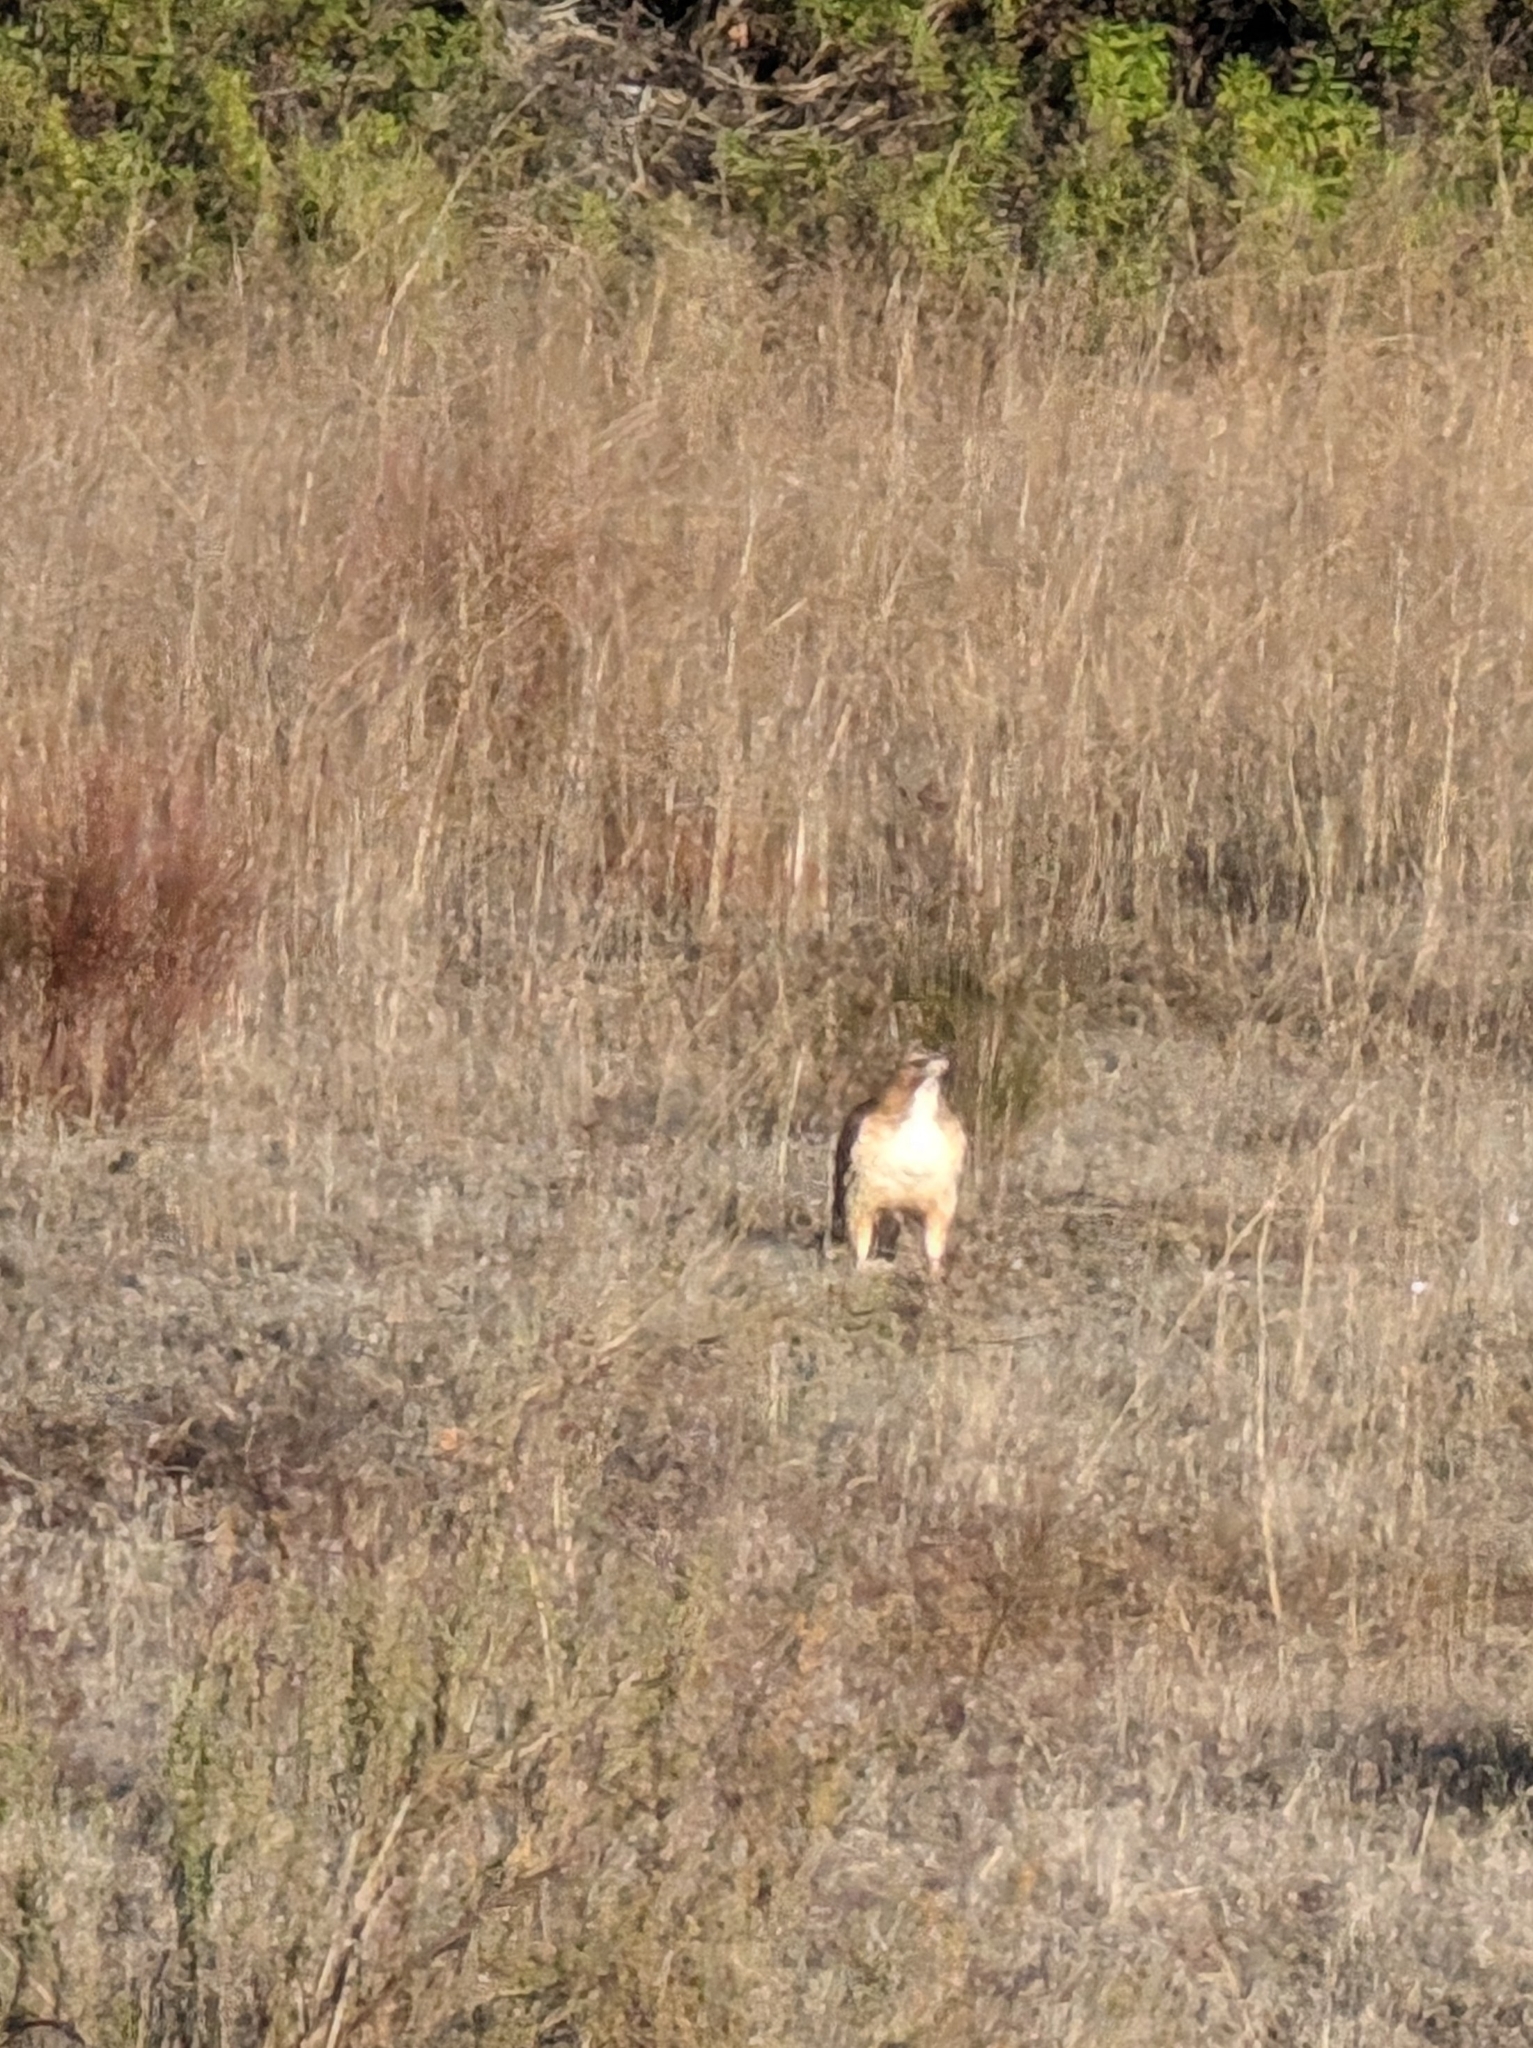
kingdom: Animalia
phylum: Chordata
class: Aves
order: Accipitriformes
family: Accipitridae
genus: Buteo
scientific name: Buteo jamaicensis
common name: Red-tailed hawk
